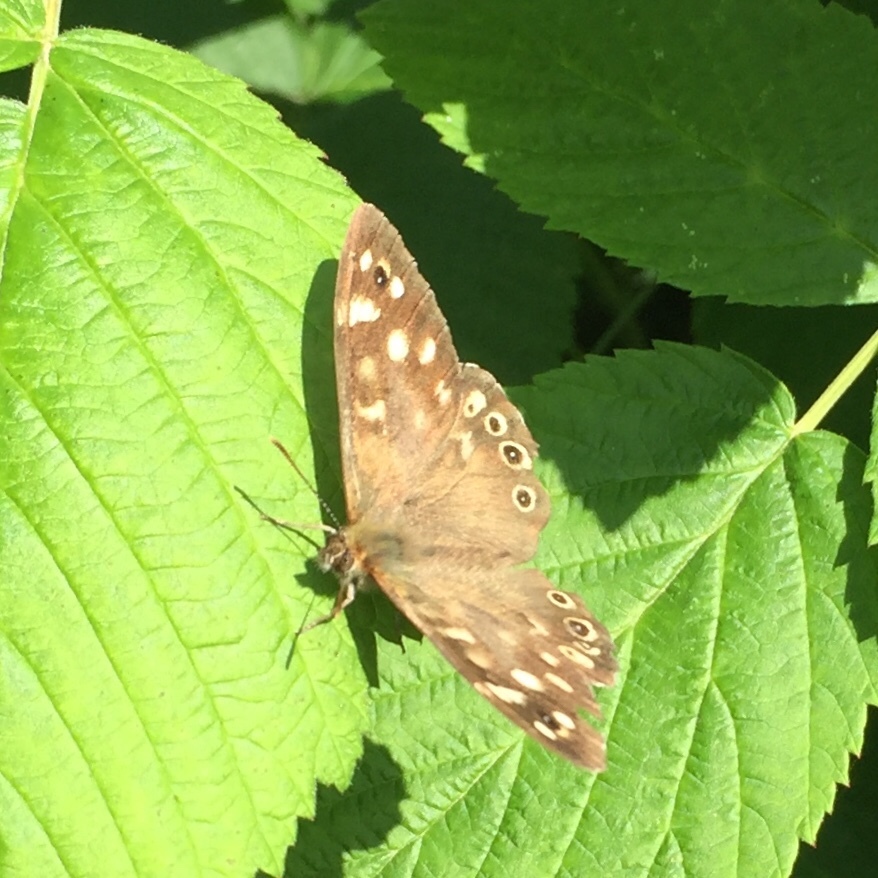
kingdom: Animalia
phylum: Arthropoda
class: Insecta
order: Lepidoptera
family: Nymphalidae
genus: Pararge
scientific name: Pararge aegeria
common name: Speckled wood
